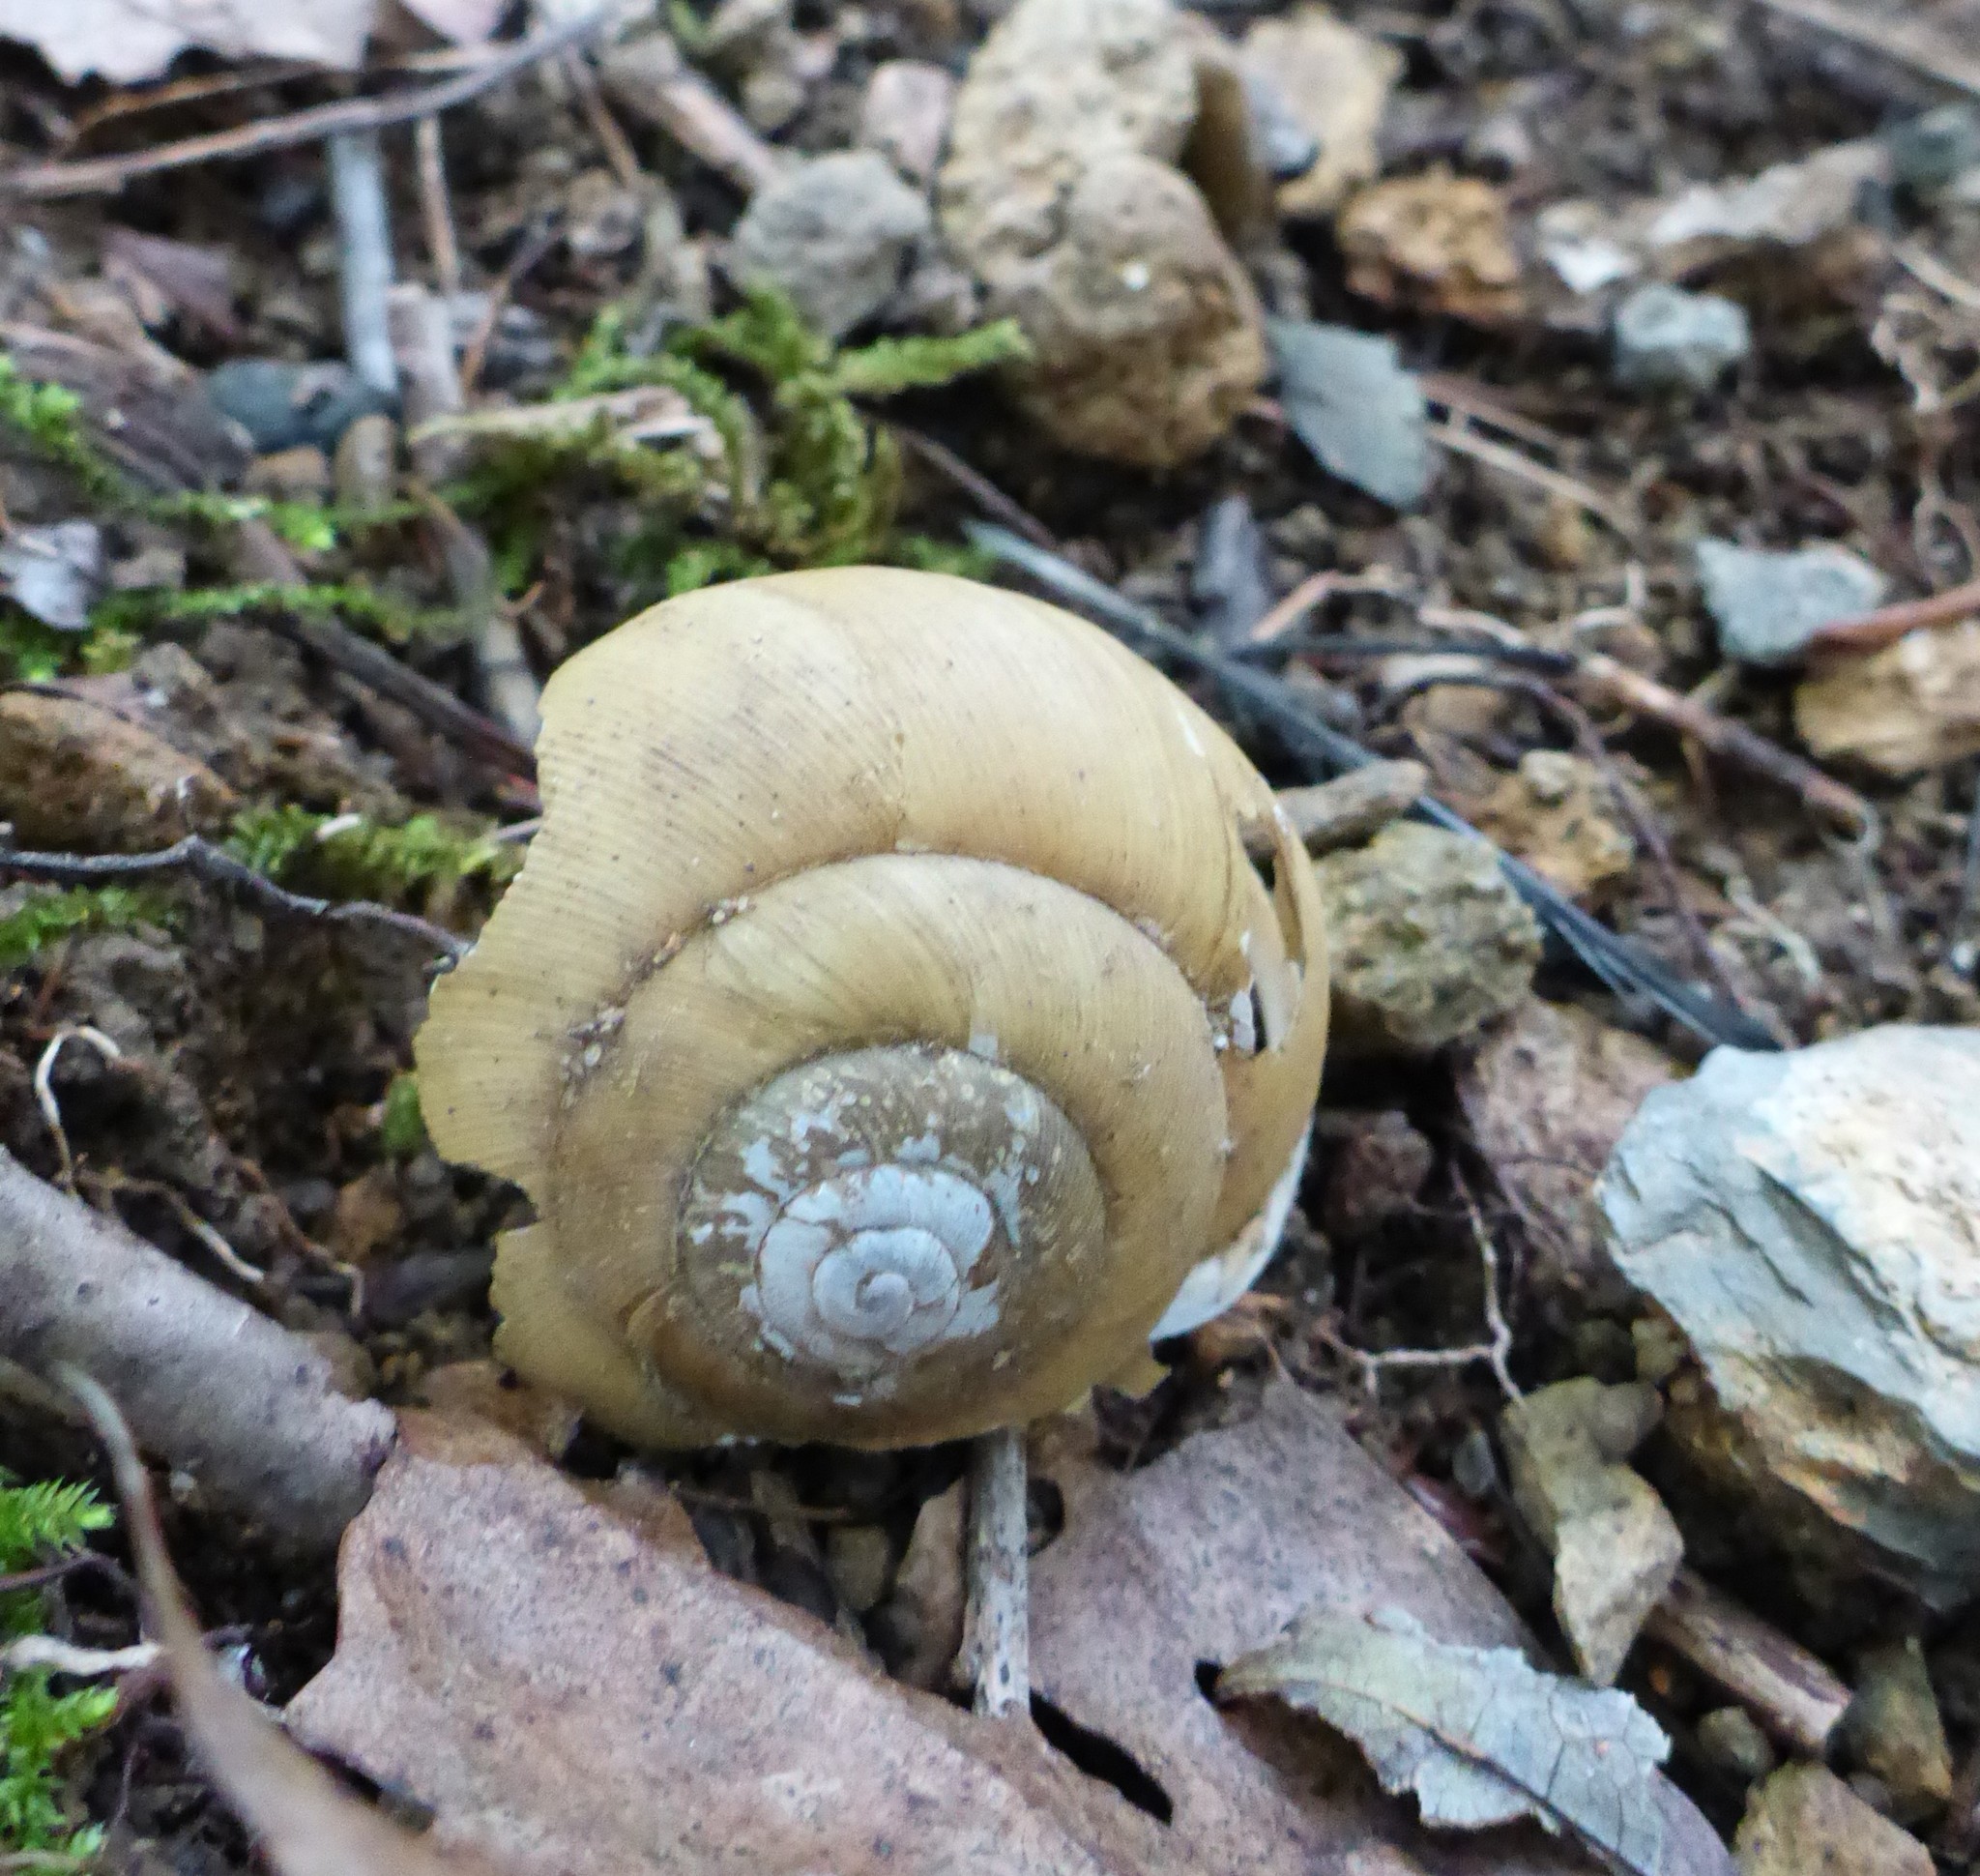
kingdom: Animalia
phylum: Mollusca
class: Gastropoda
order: Stylommatophora
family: Polygyridae
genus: Neohelix
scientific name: Neohelix albolabris
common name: Eastern whitelip
